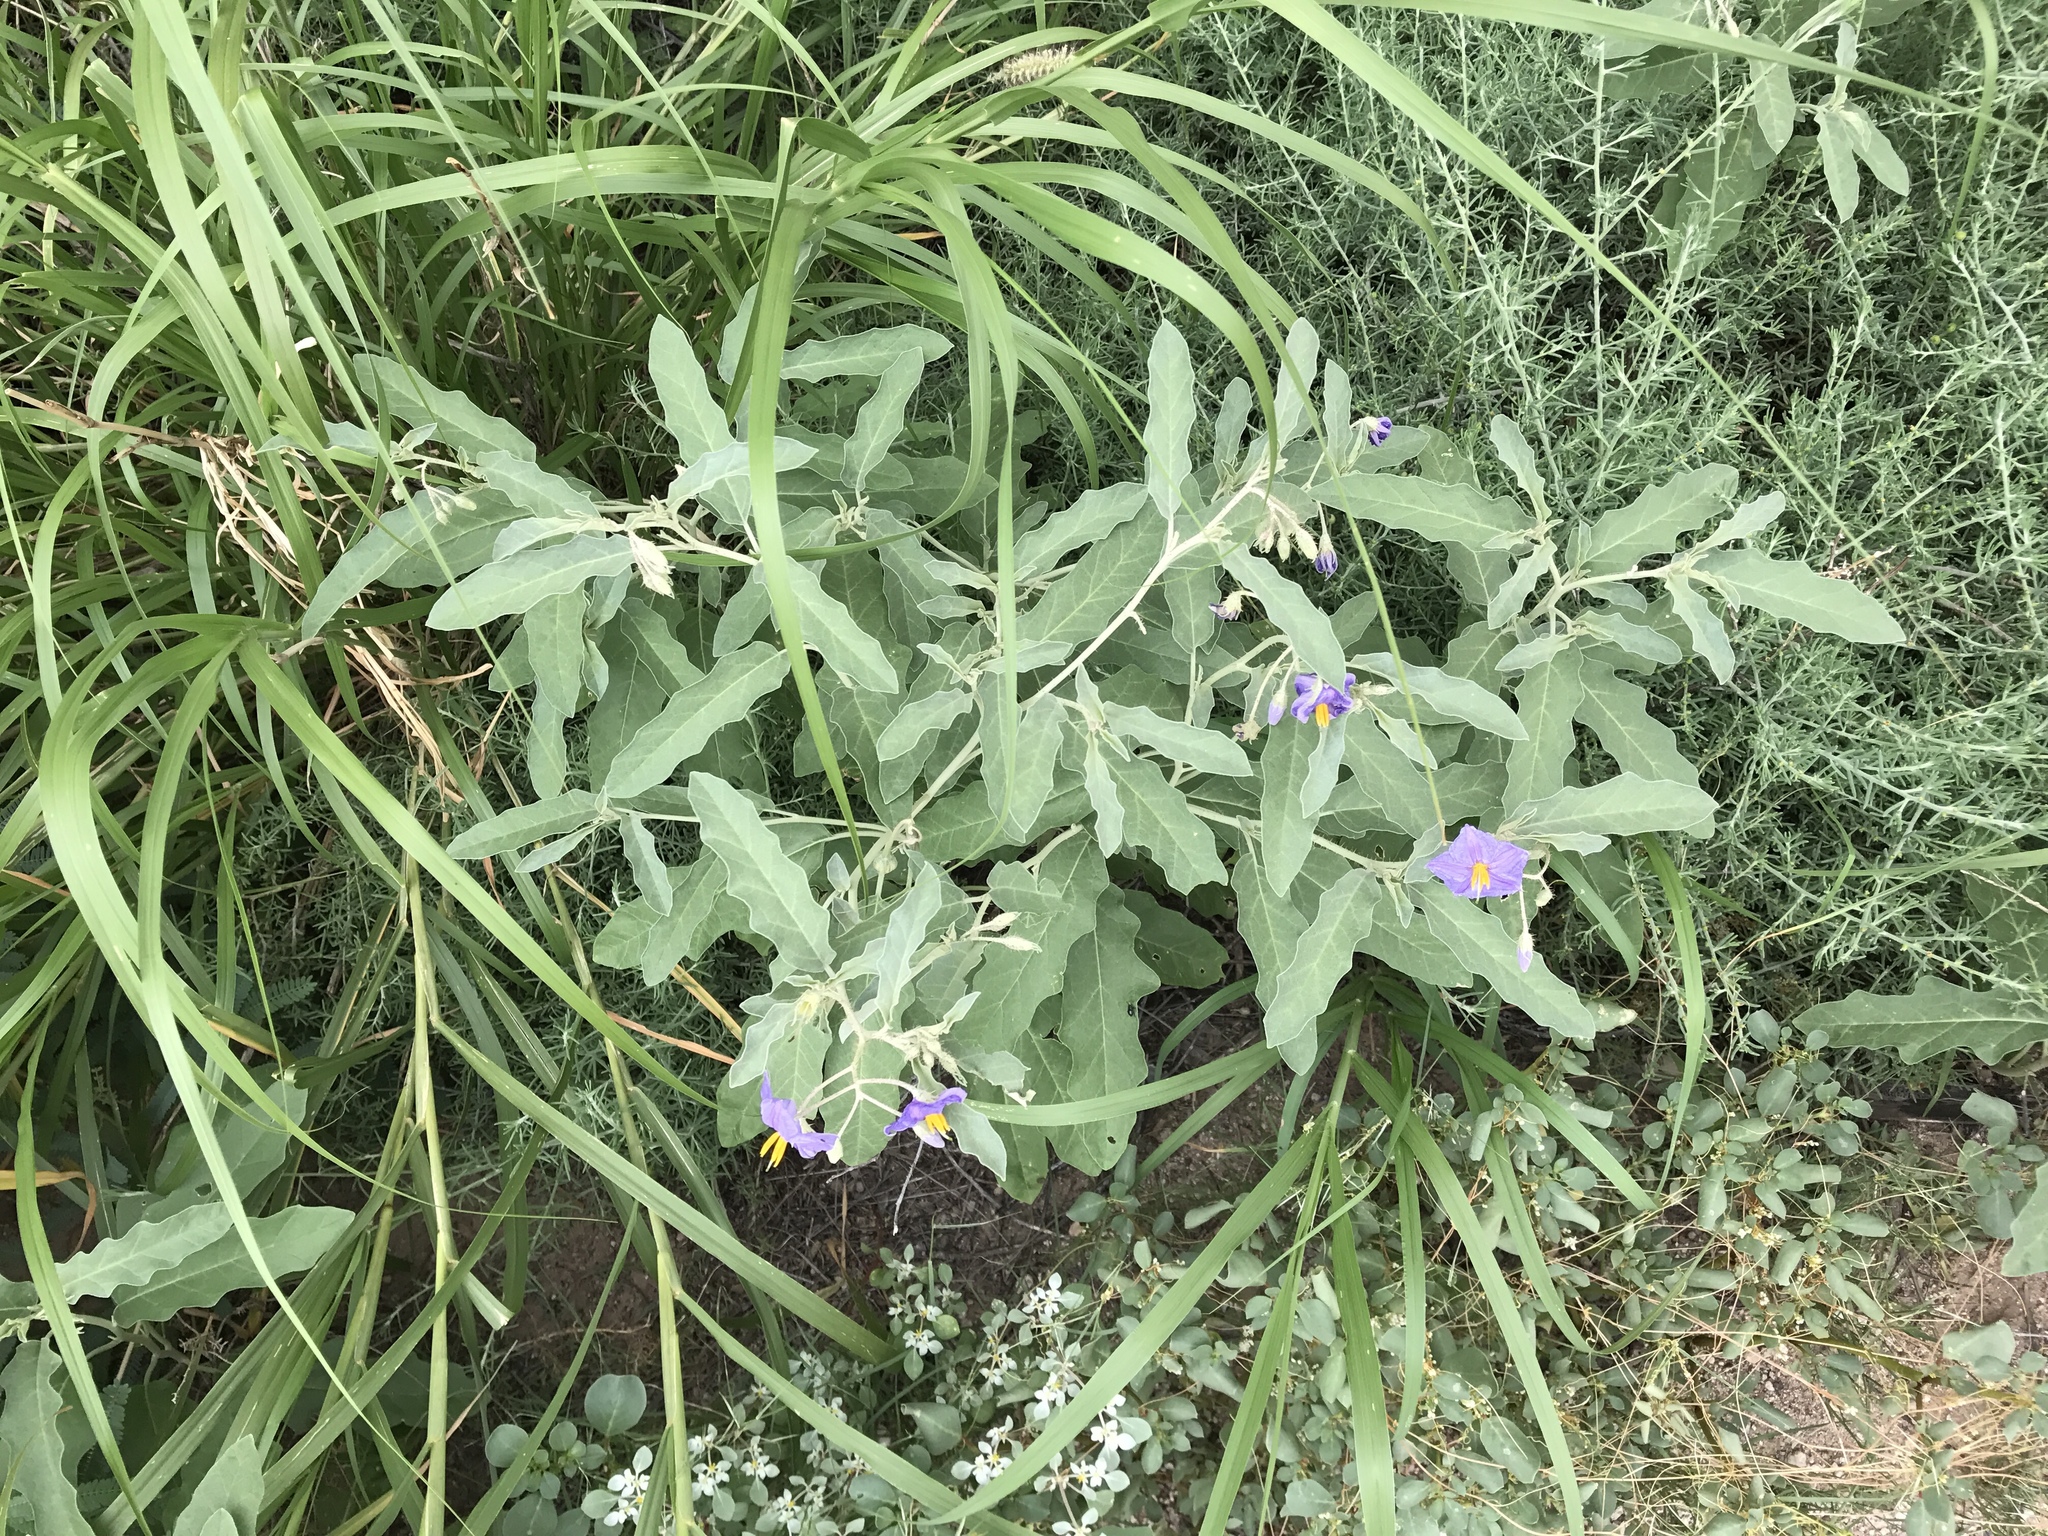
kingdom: Plantae
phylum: Tracheophyta
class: Magnoliopsida
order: Solanales
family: Solanaceae
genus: Solanum
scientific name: Solanum elaeagnifolium
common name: Silverleaf nightshade
